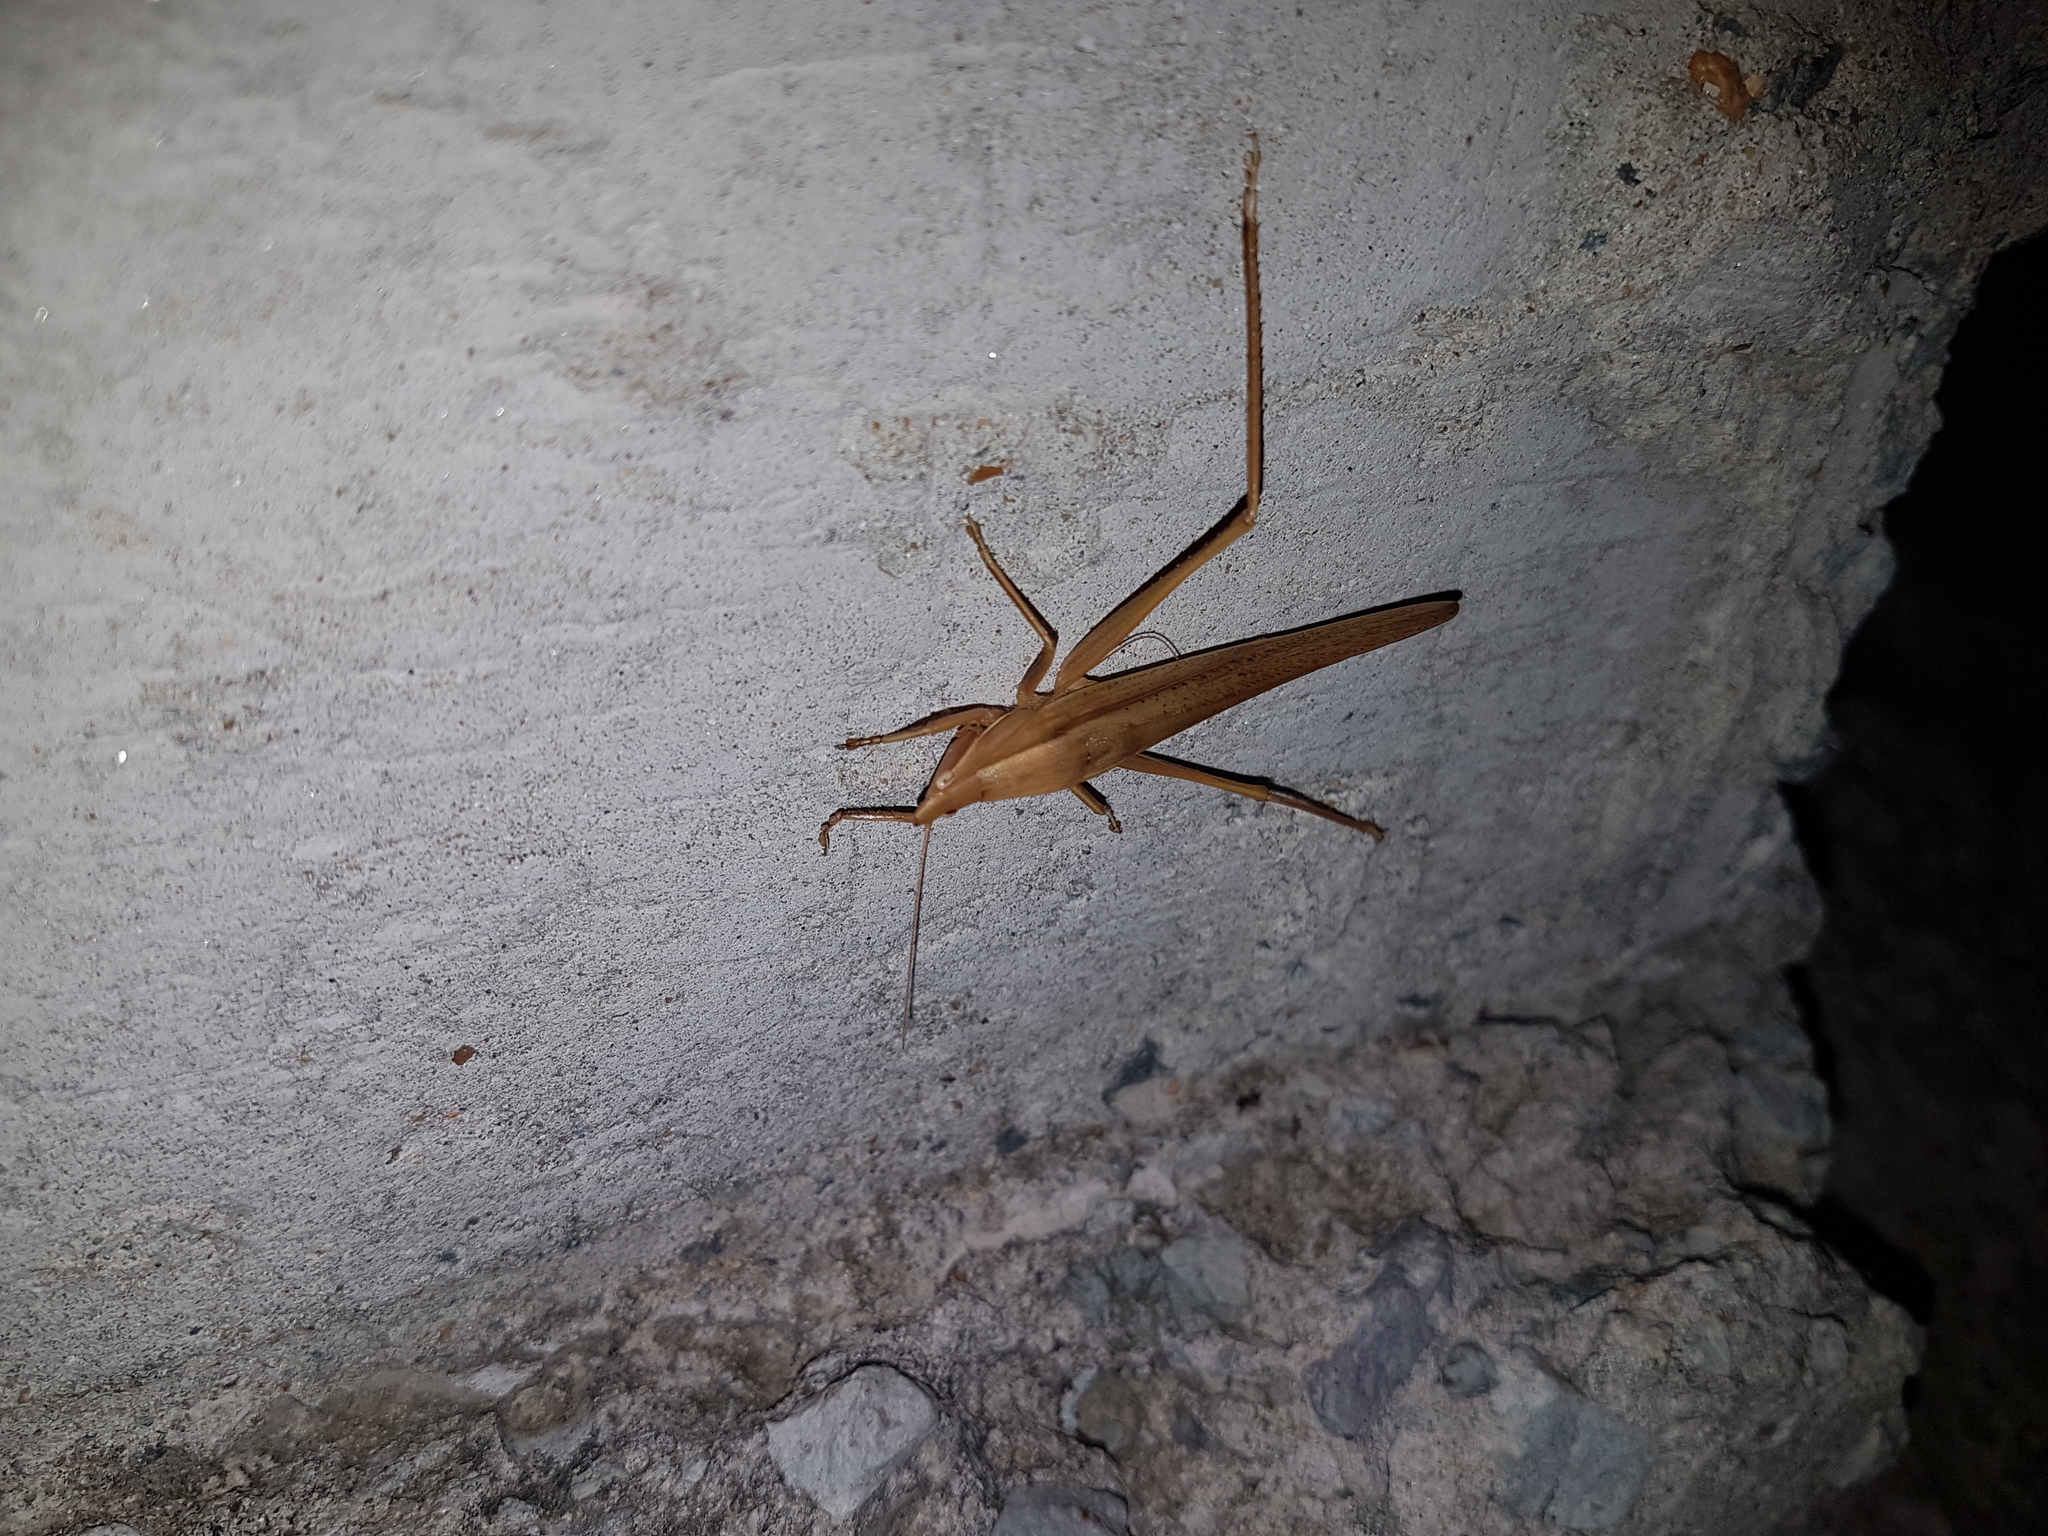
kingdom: Animalia
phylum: Arthropoda
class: Insecta
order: Orthoptera
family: Tettigoniidae
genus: Euconocephalus
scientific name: Euconocephalus nasutus
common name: Grasshopper
